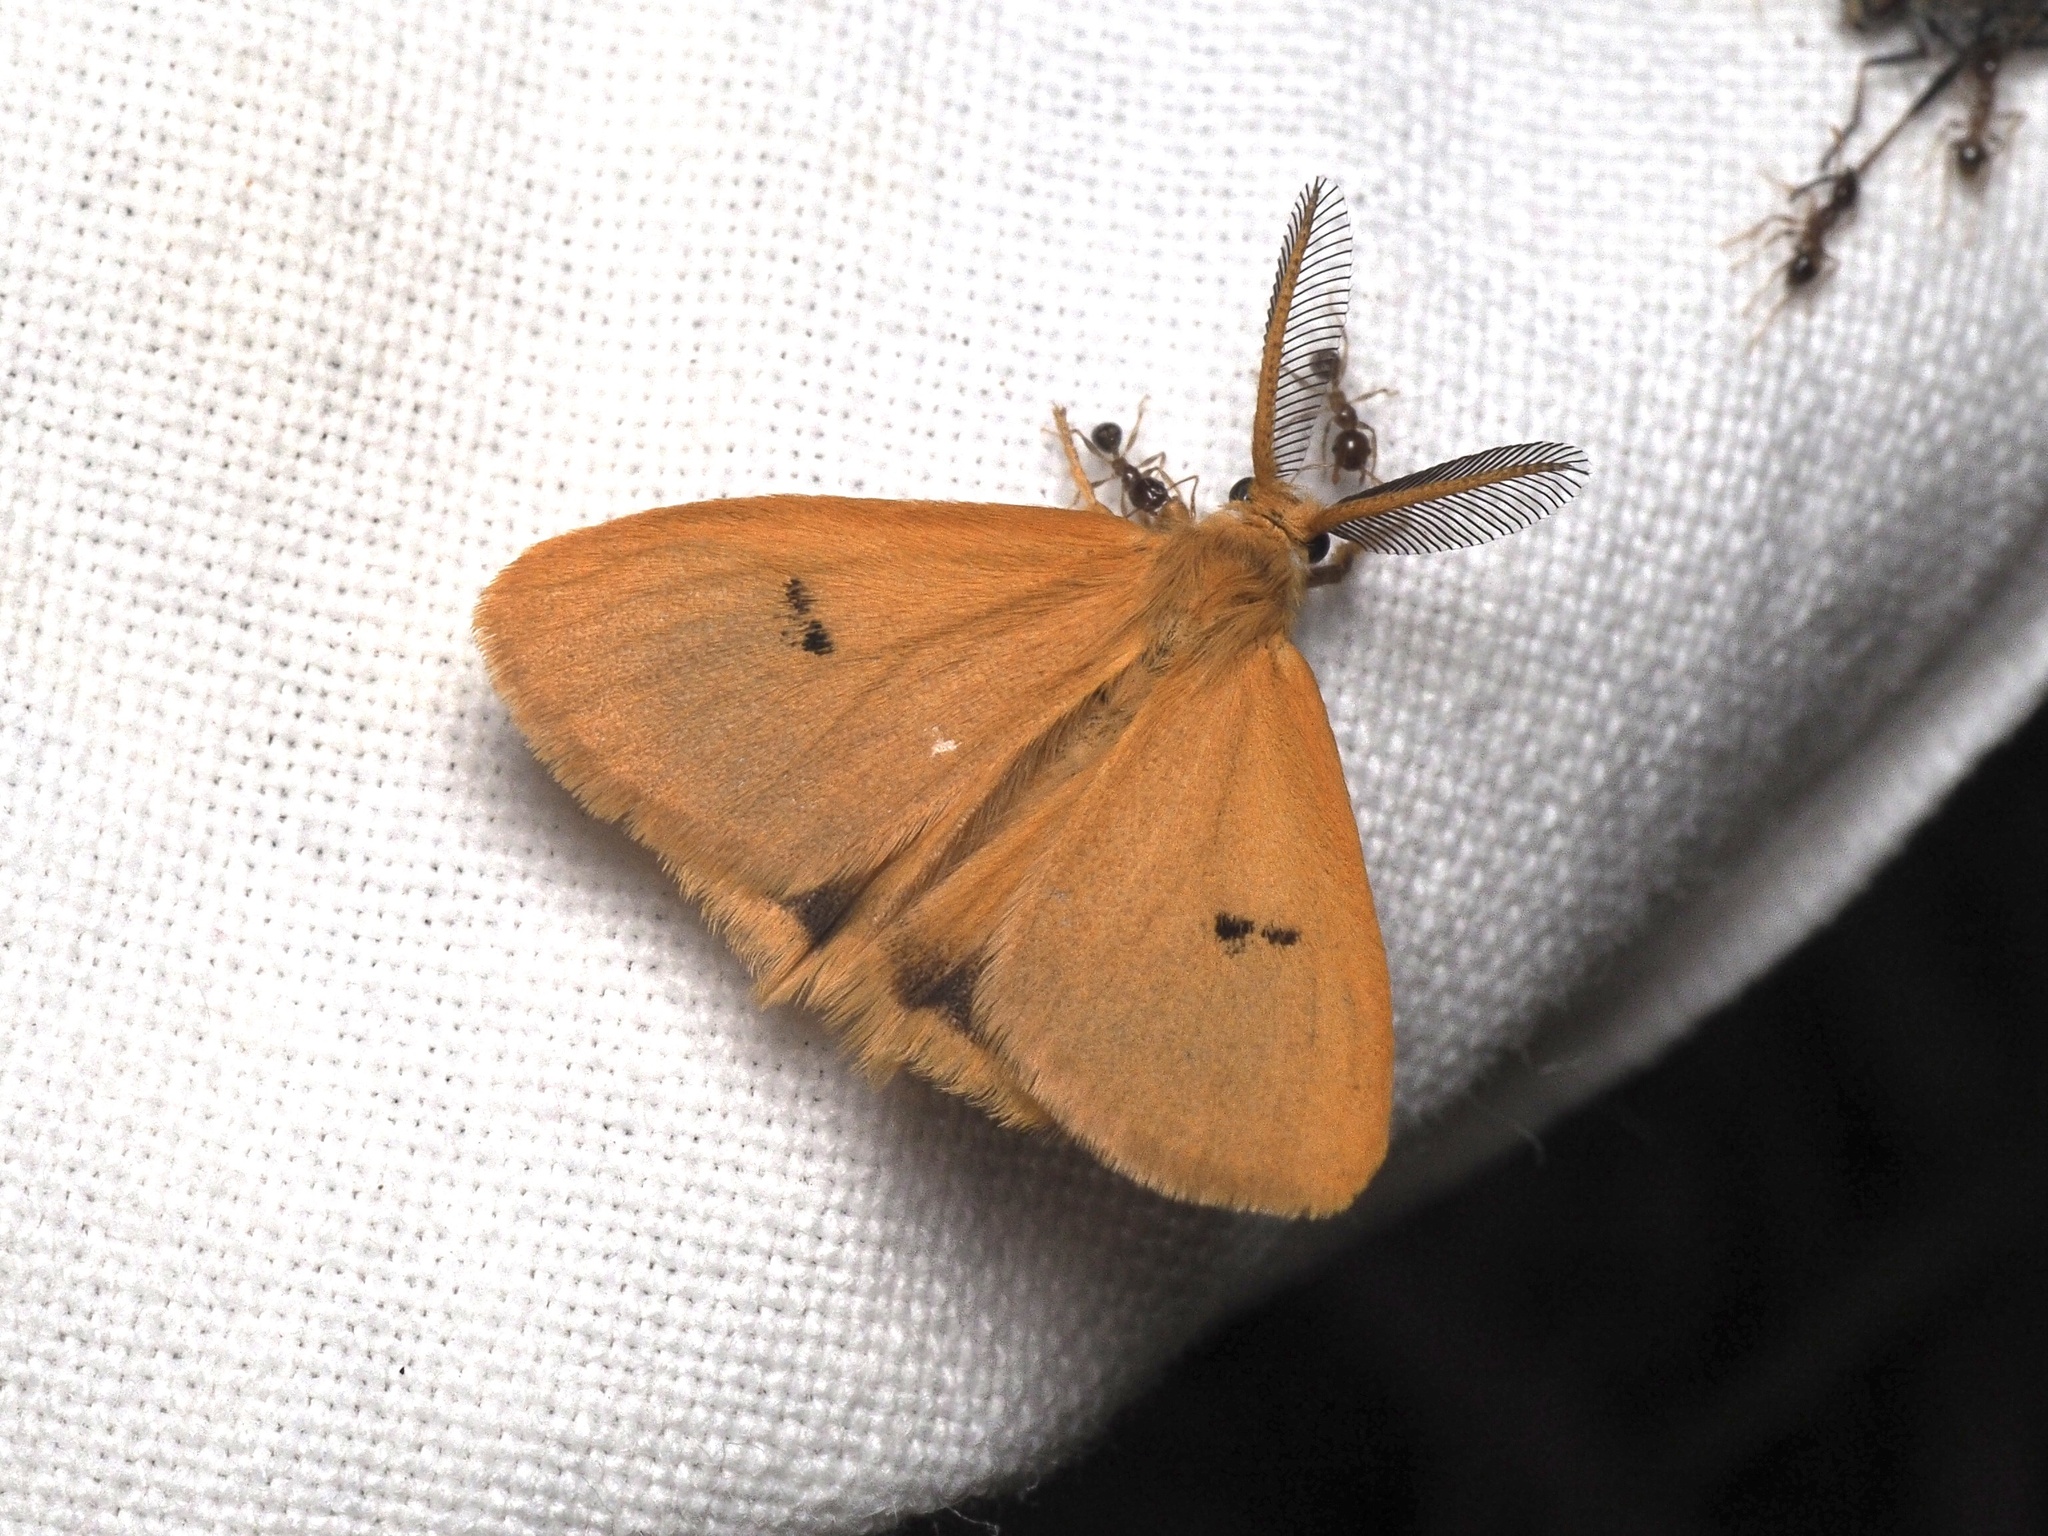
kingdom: Animalia
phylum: Arthropoda
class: Insecta
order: Lepidoptera
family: Erebidae
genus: Bracharoa
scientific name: Bracharoa quadripunctata
